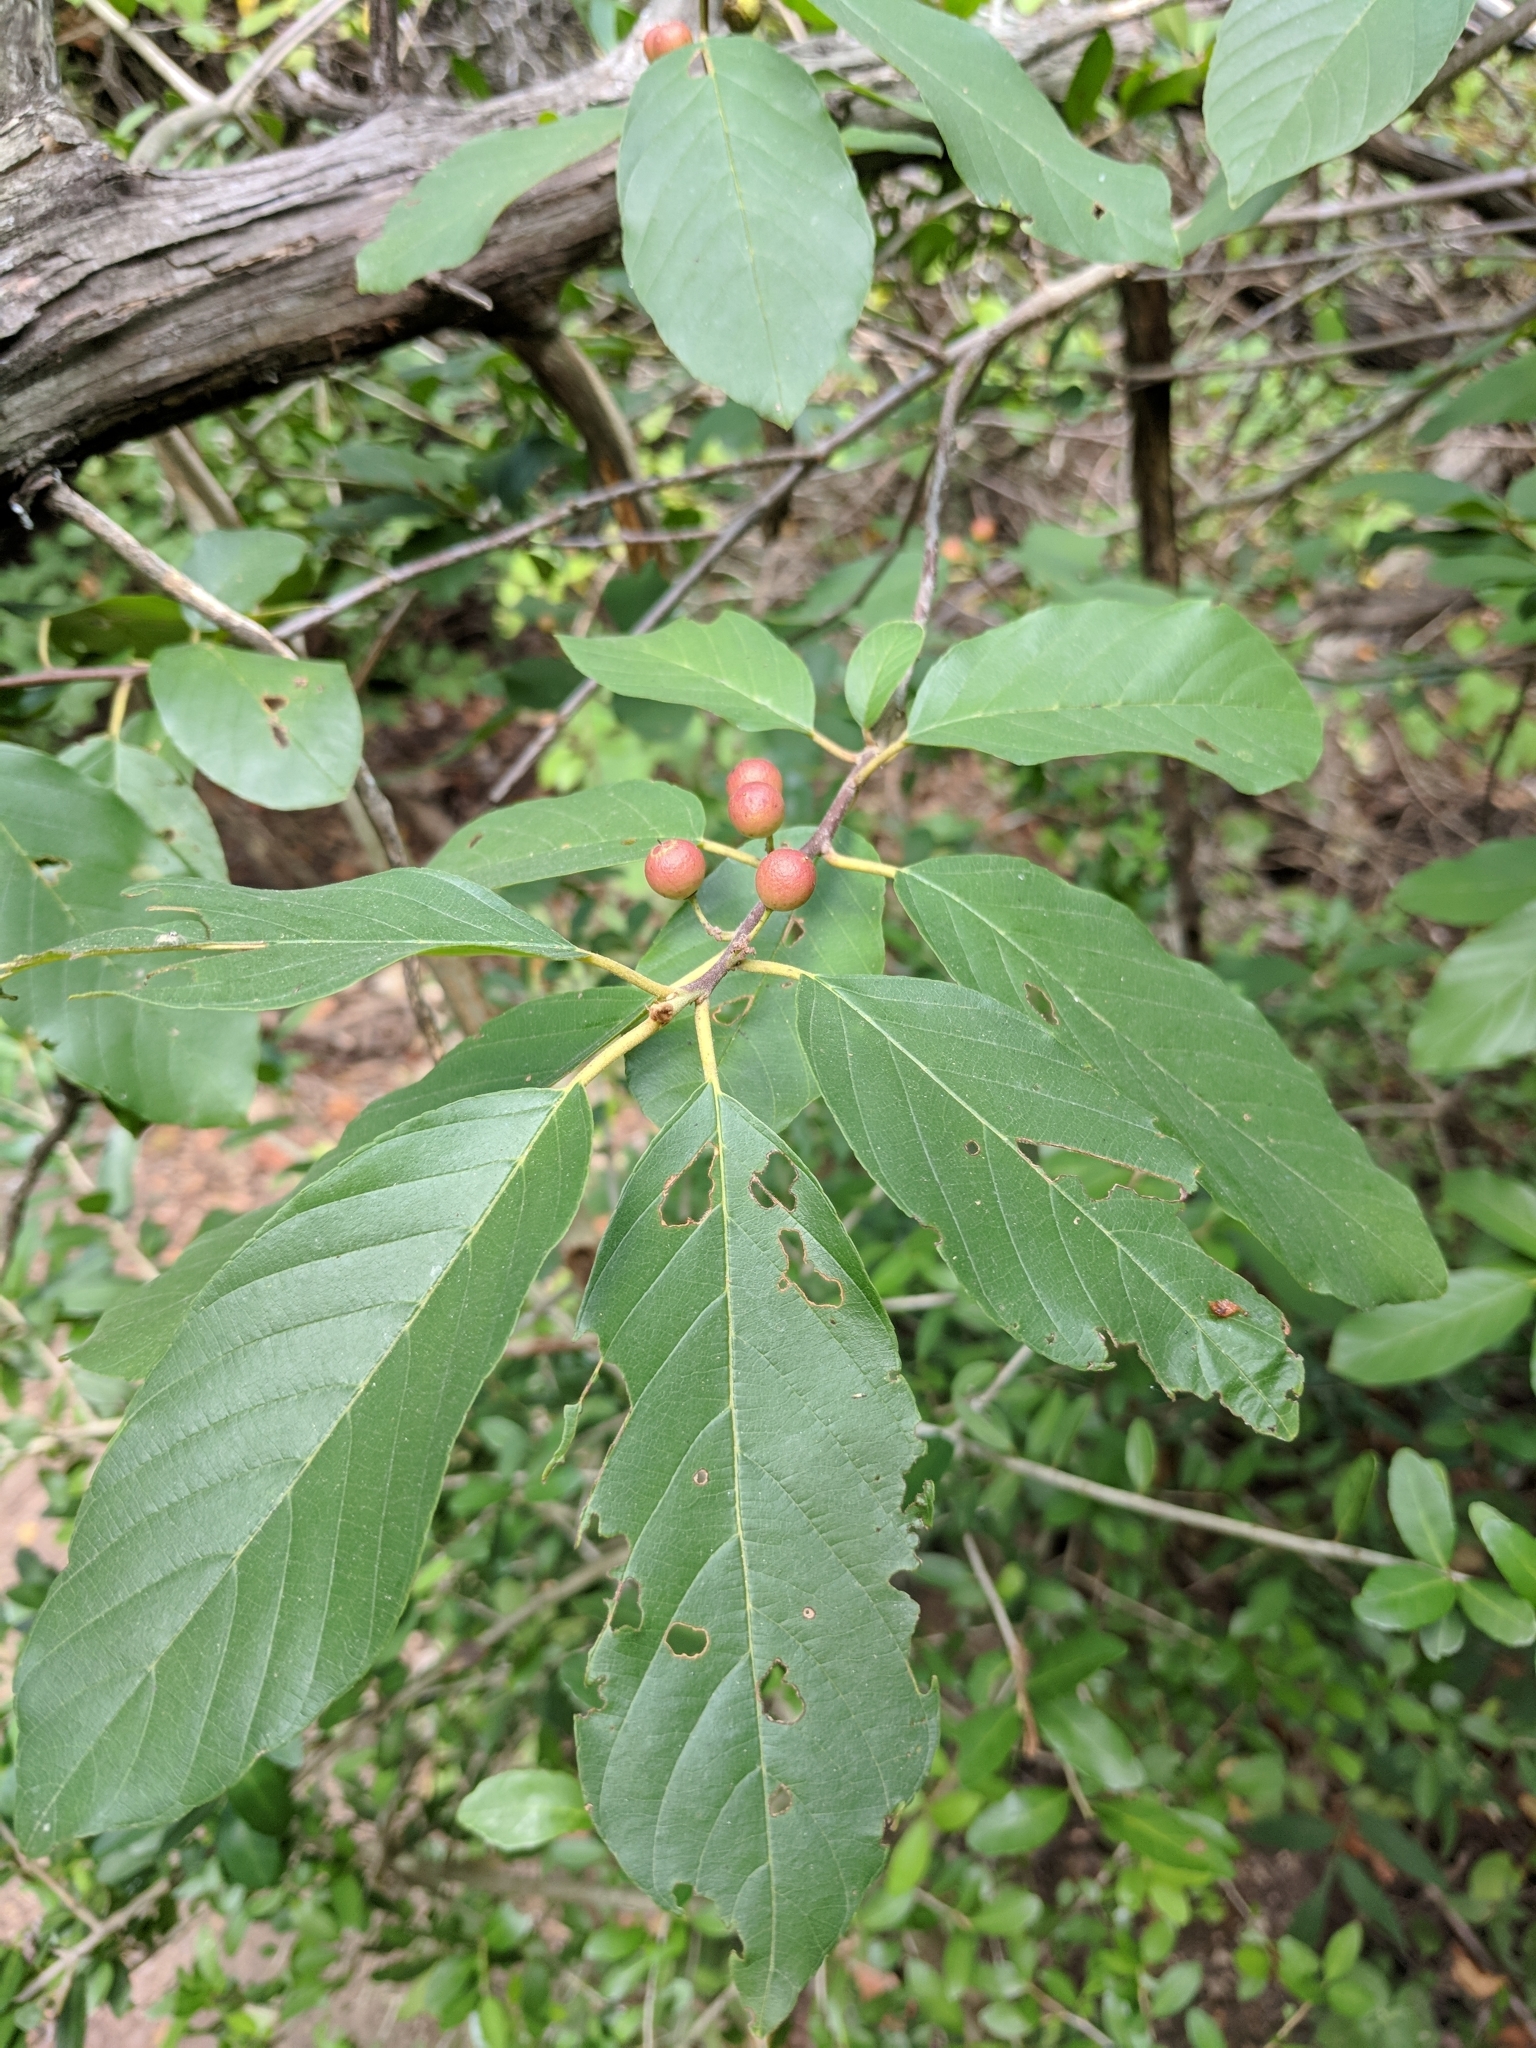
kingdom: Plantae
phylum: Tracheophyta
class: Magnoliopsida
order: Rosales
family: Rhamnaceae
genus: Frangula
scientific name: Frangula caroliniana
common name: Carolina buckthorn
